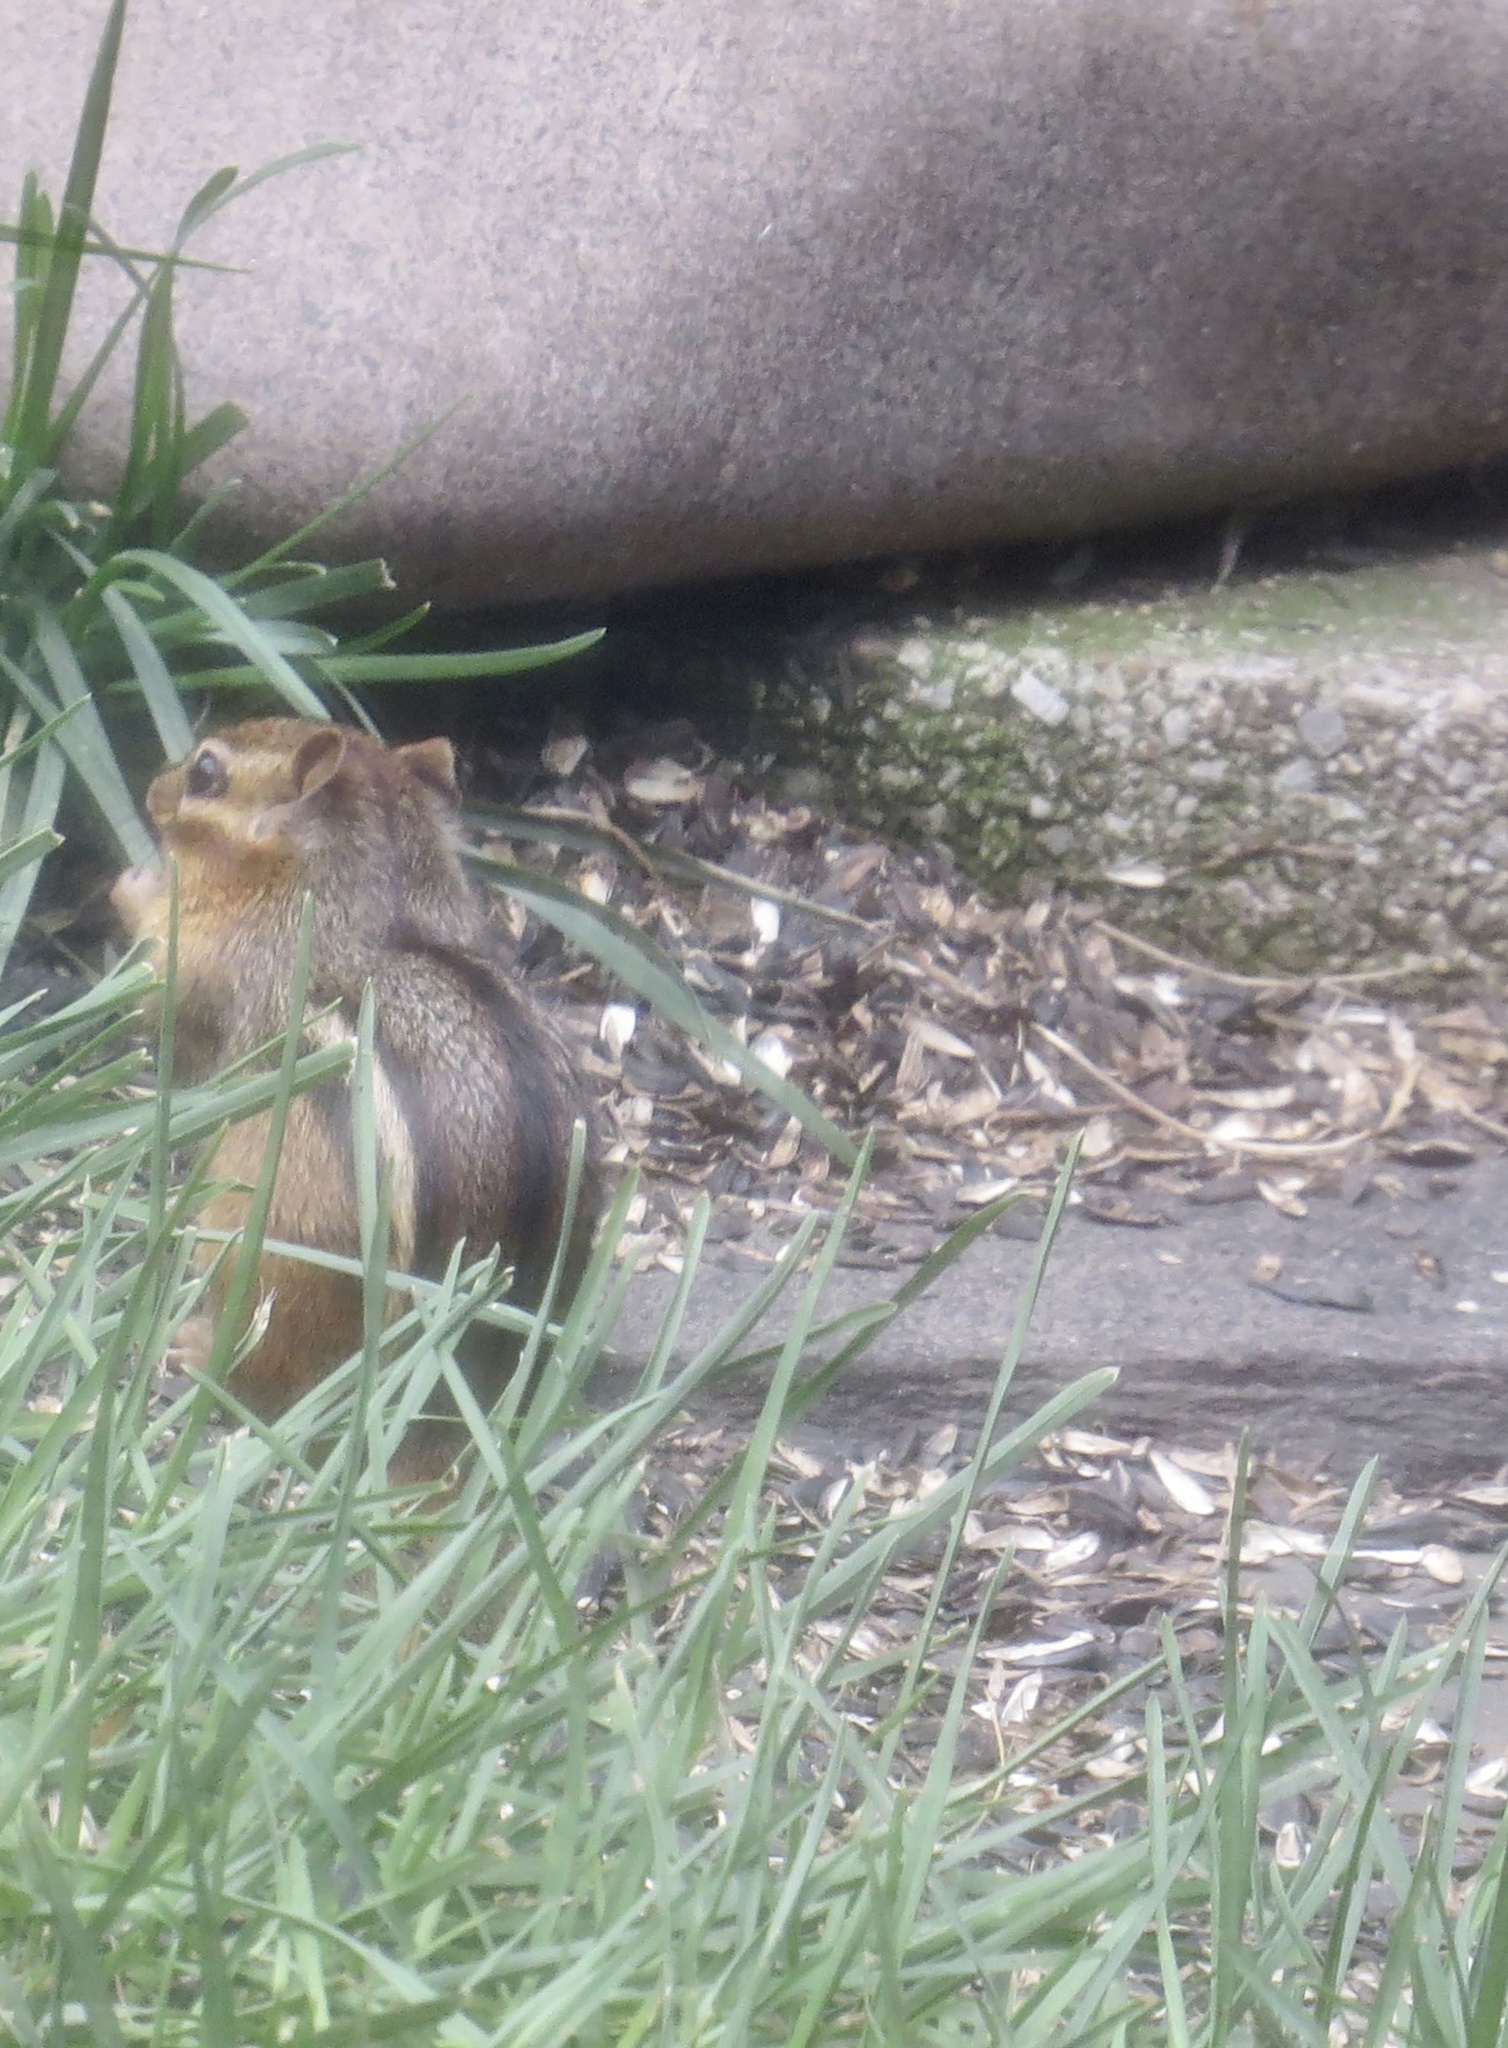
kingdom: Animalia
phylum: Chordata
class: Mammalia
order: Rodentia
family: Sciuridae
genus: Tamias
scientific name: Tamias striatus
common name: Eastern chipmunk
